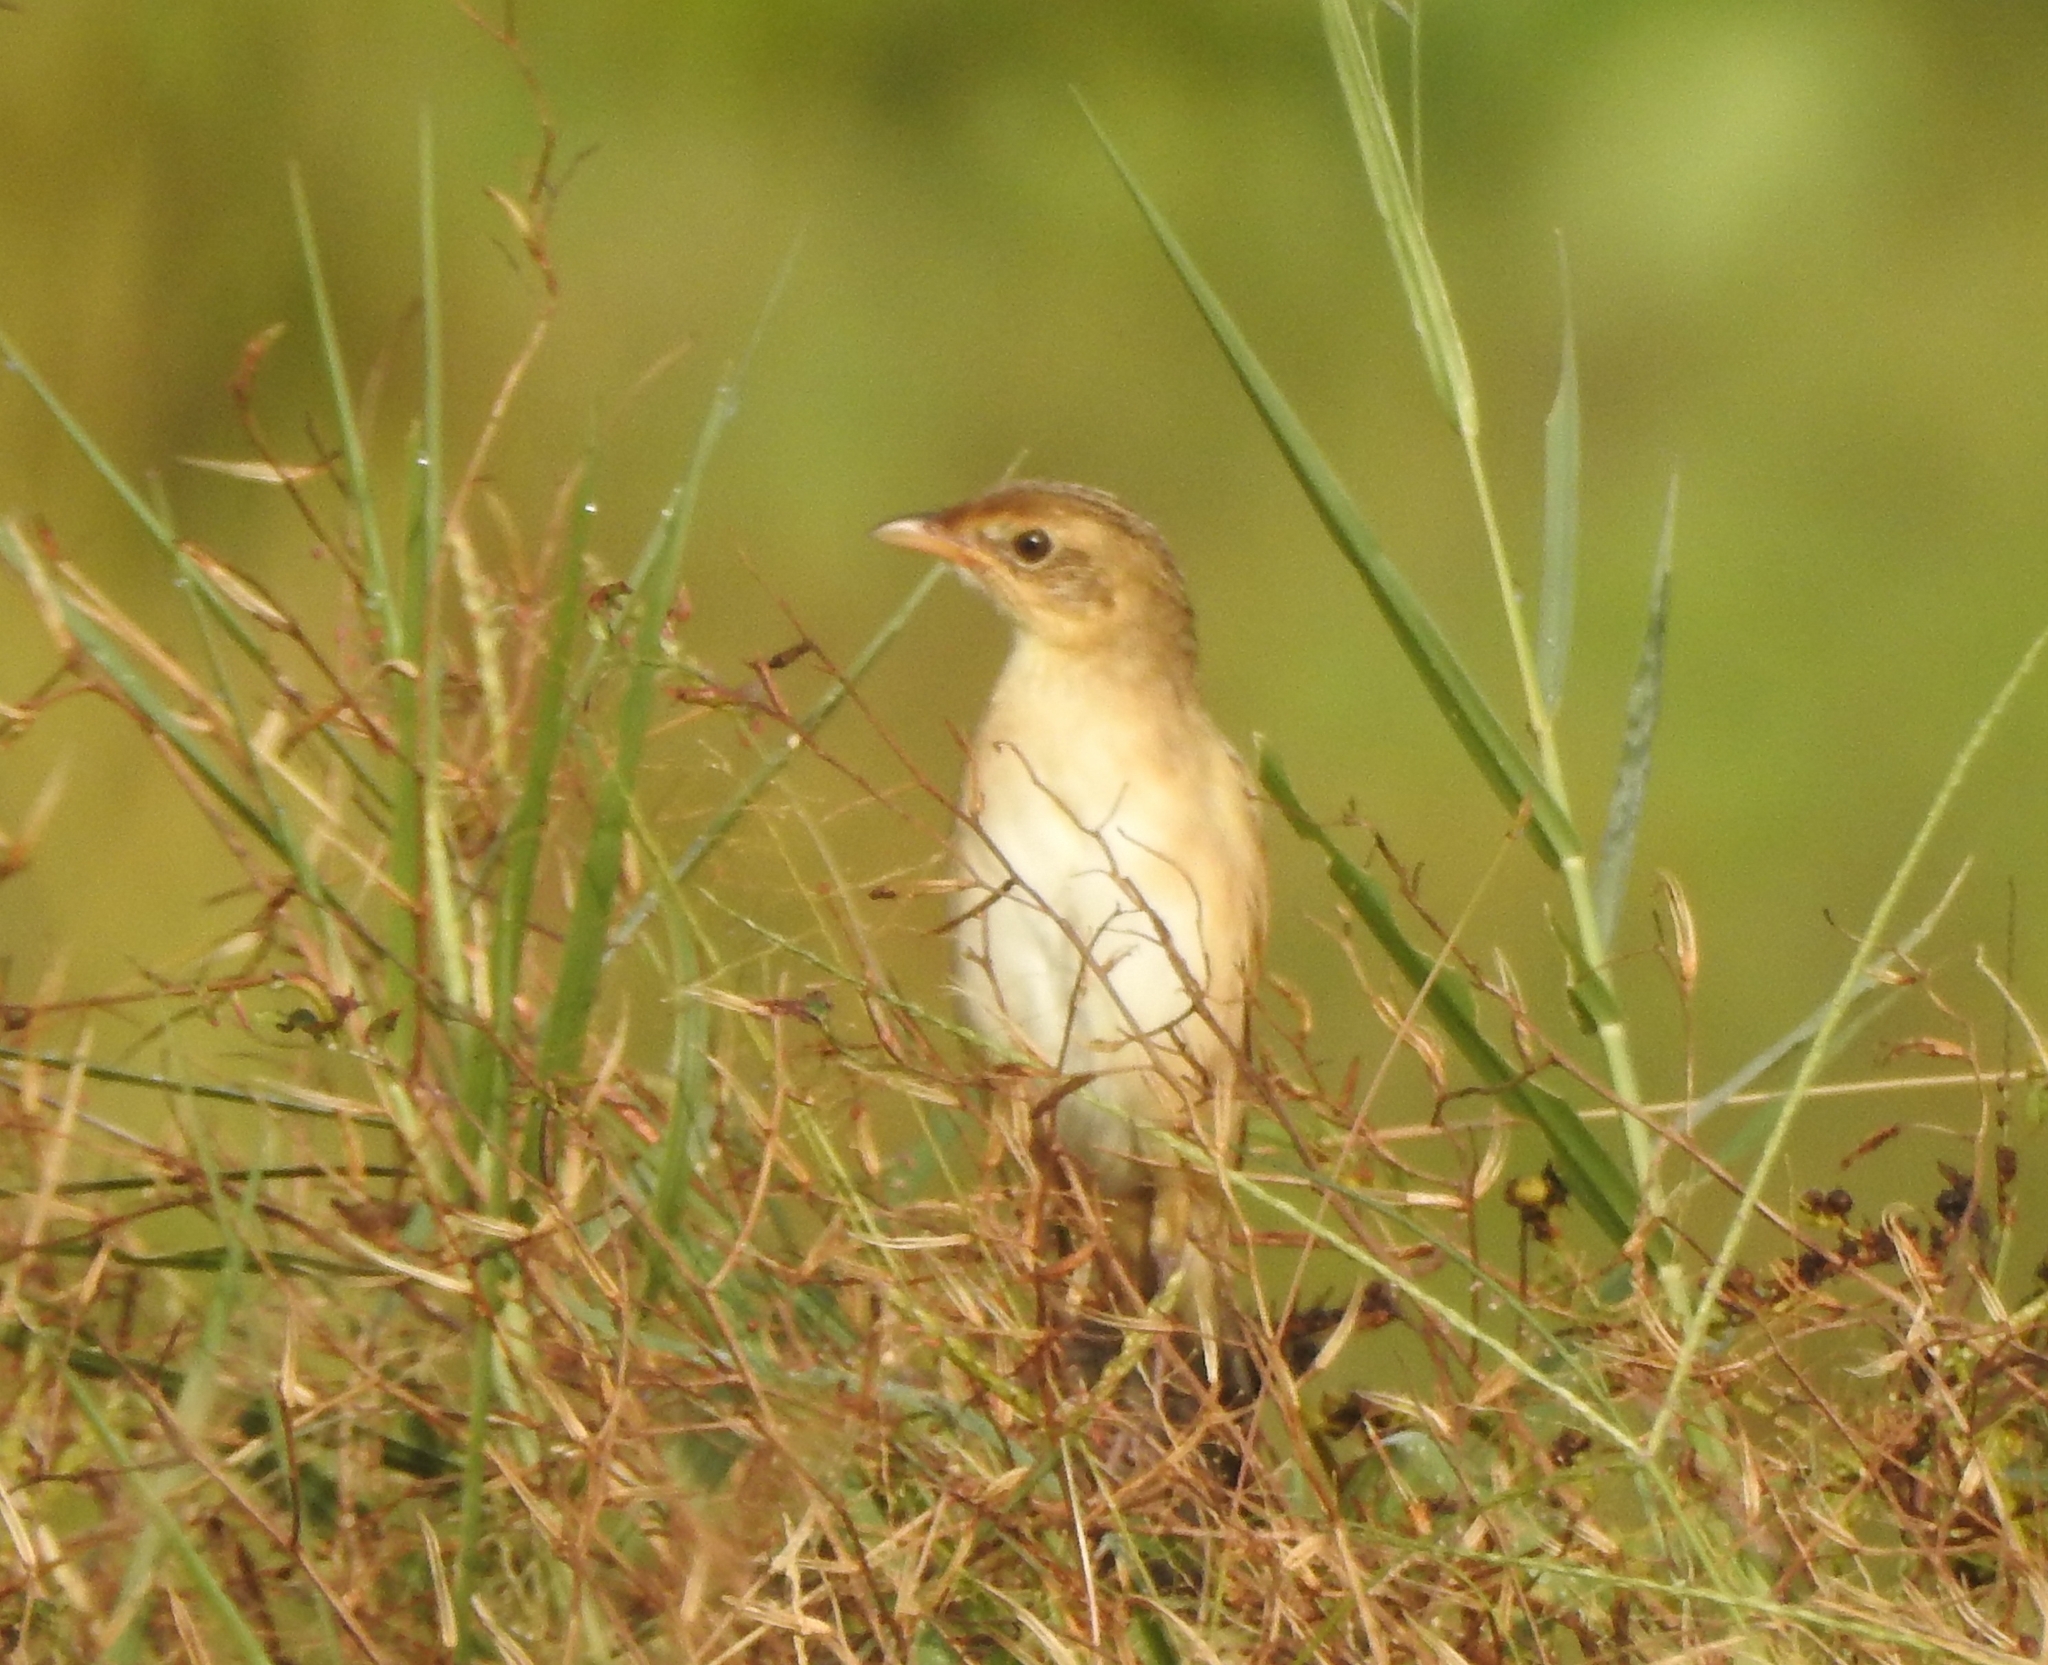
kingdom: Animalia
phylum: Chordata
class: Aves
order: Passeriformes
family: Locustellidae
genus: Chaetornis
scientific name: Chaetornis striata
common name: Bristled grassbird
